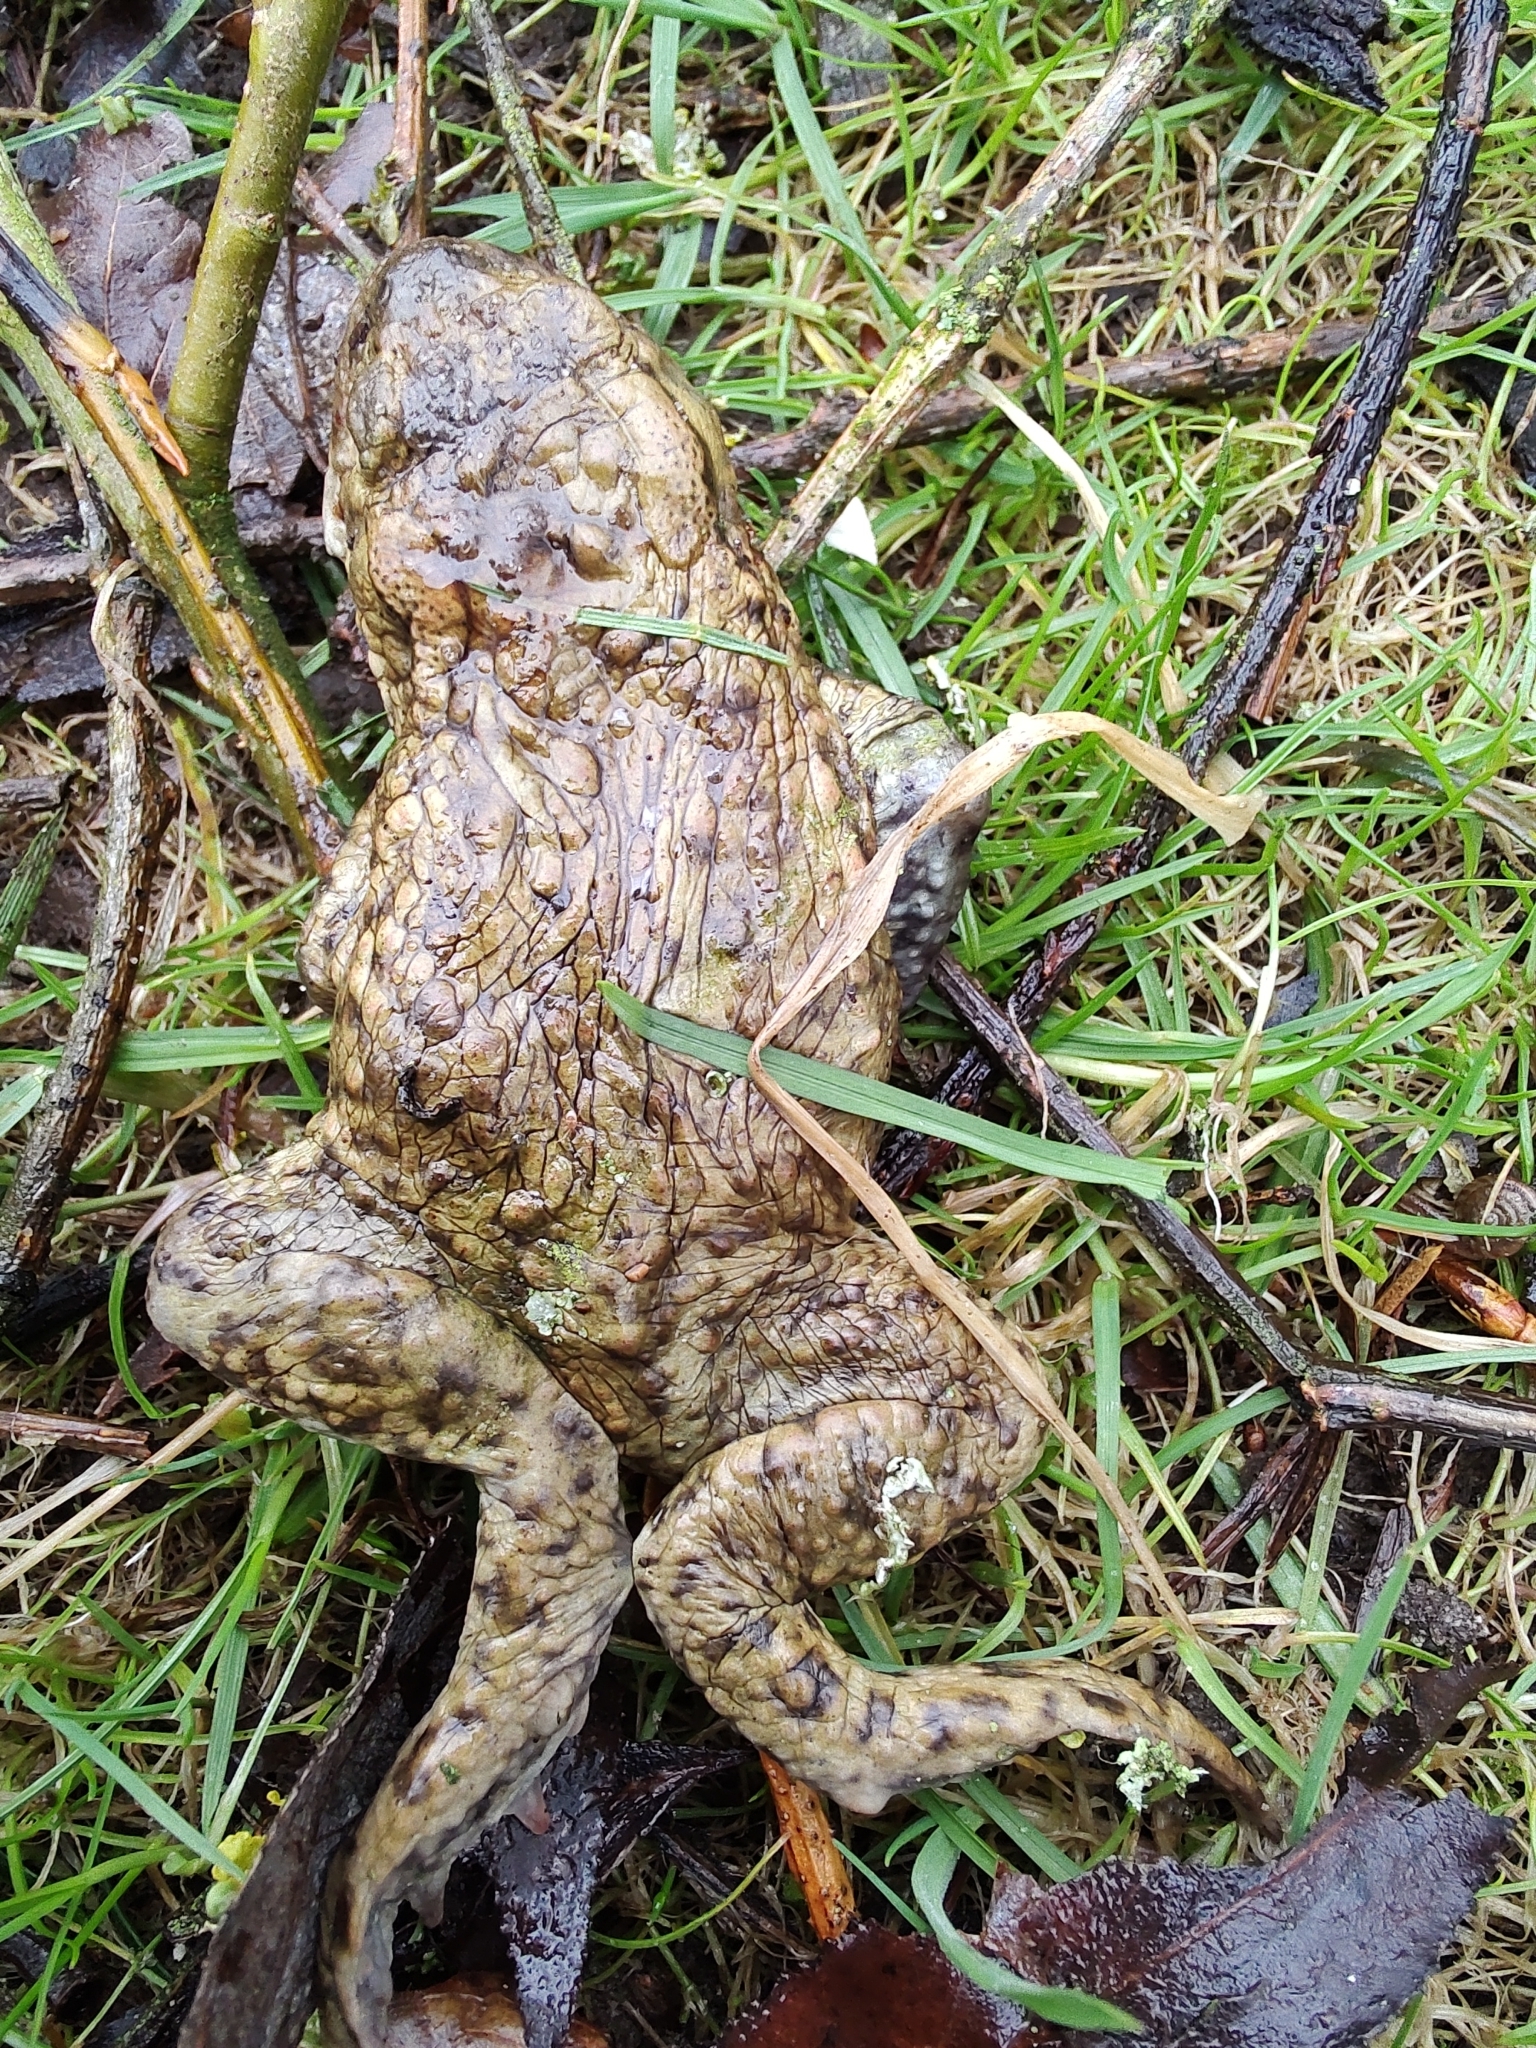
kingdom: Animalia
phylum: Chordata
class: Amphibia
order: Anura
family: Bufonidae
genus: Bufo
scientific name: Bufo bufo
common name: Common toad
